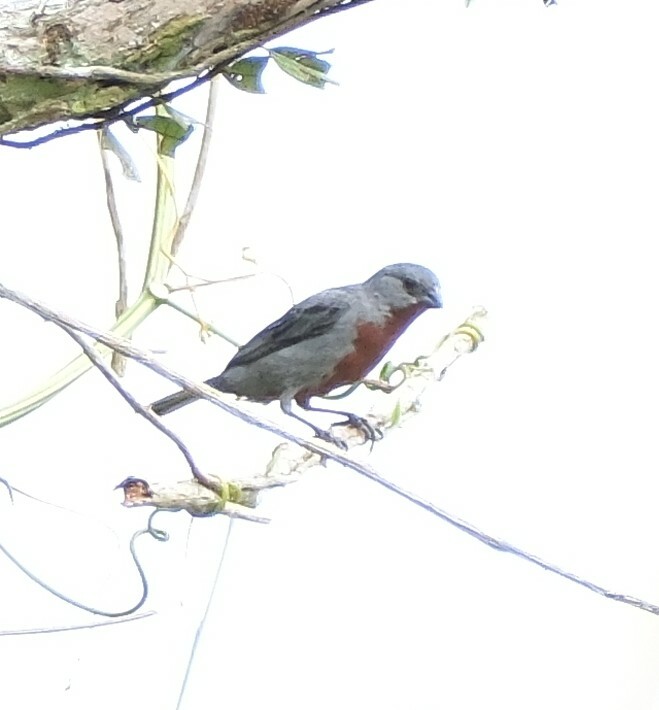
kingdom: Animalia
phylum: Chordata
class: Aves
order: Passeriformes
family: Thraupidae
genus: Sporophila
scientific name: Sporophila castaneiventris
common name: Chestnut-bellied seedeater
